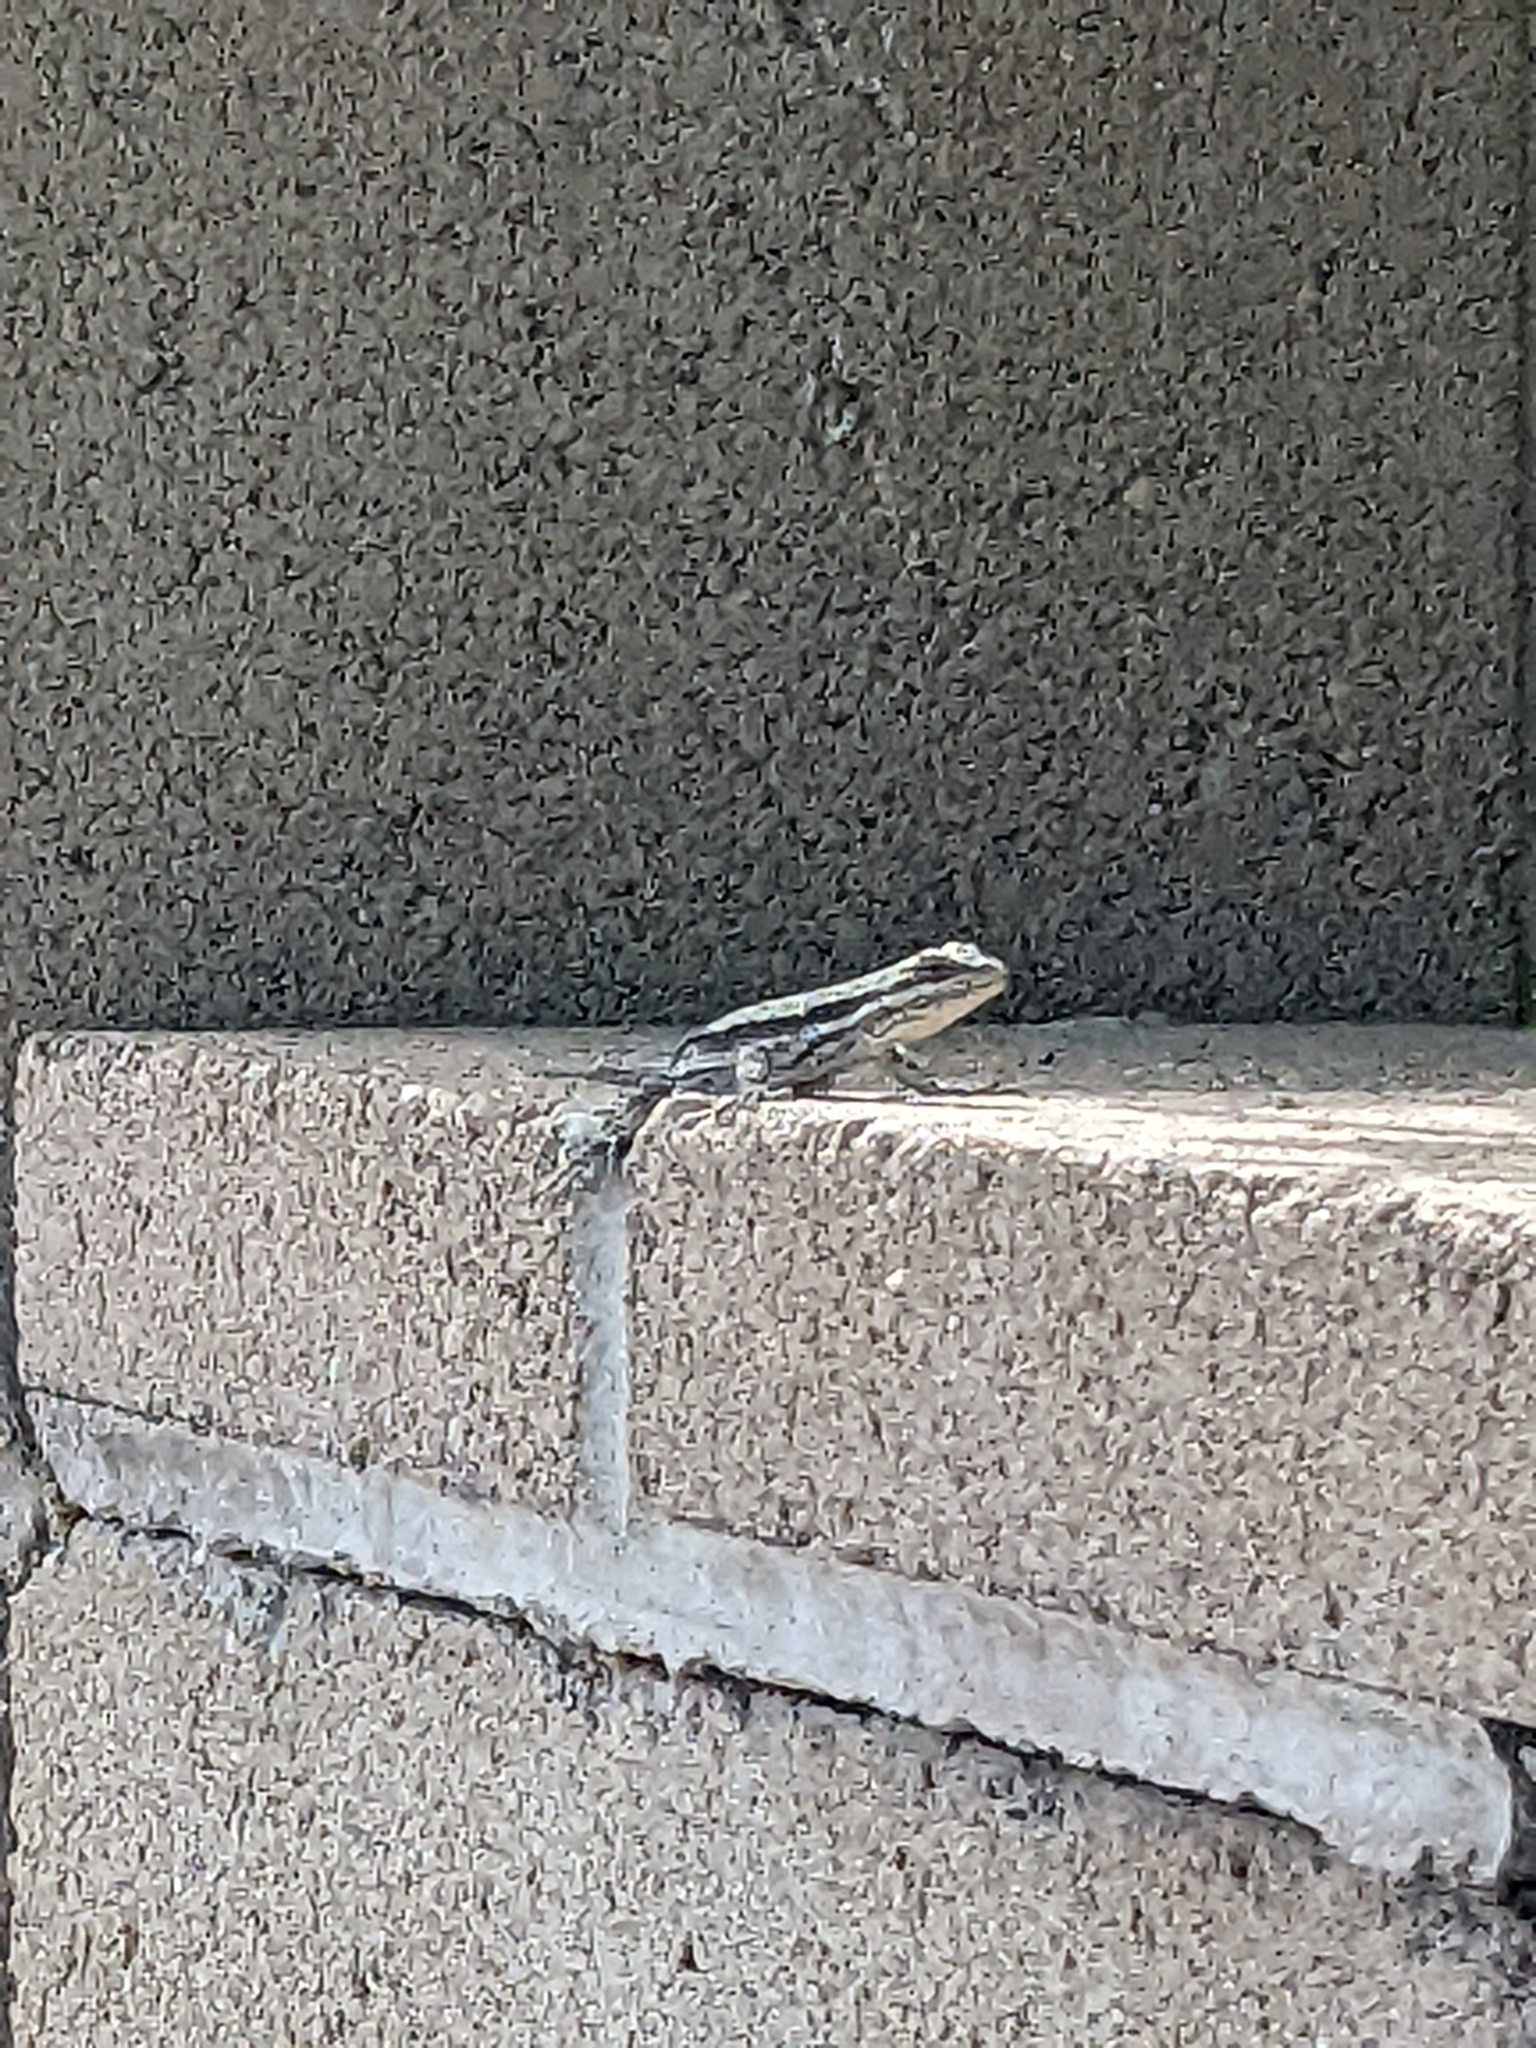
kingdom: Animalia
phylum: Chordata
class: Squamata
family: Phrynosomatidae
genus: Urosaurus
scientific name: Urosaurus ornatus
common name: Ornate tree lizard
